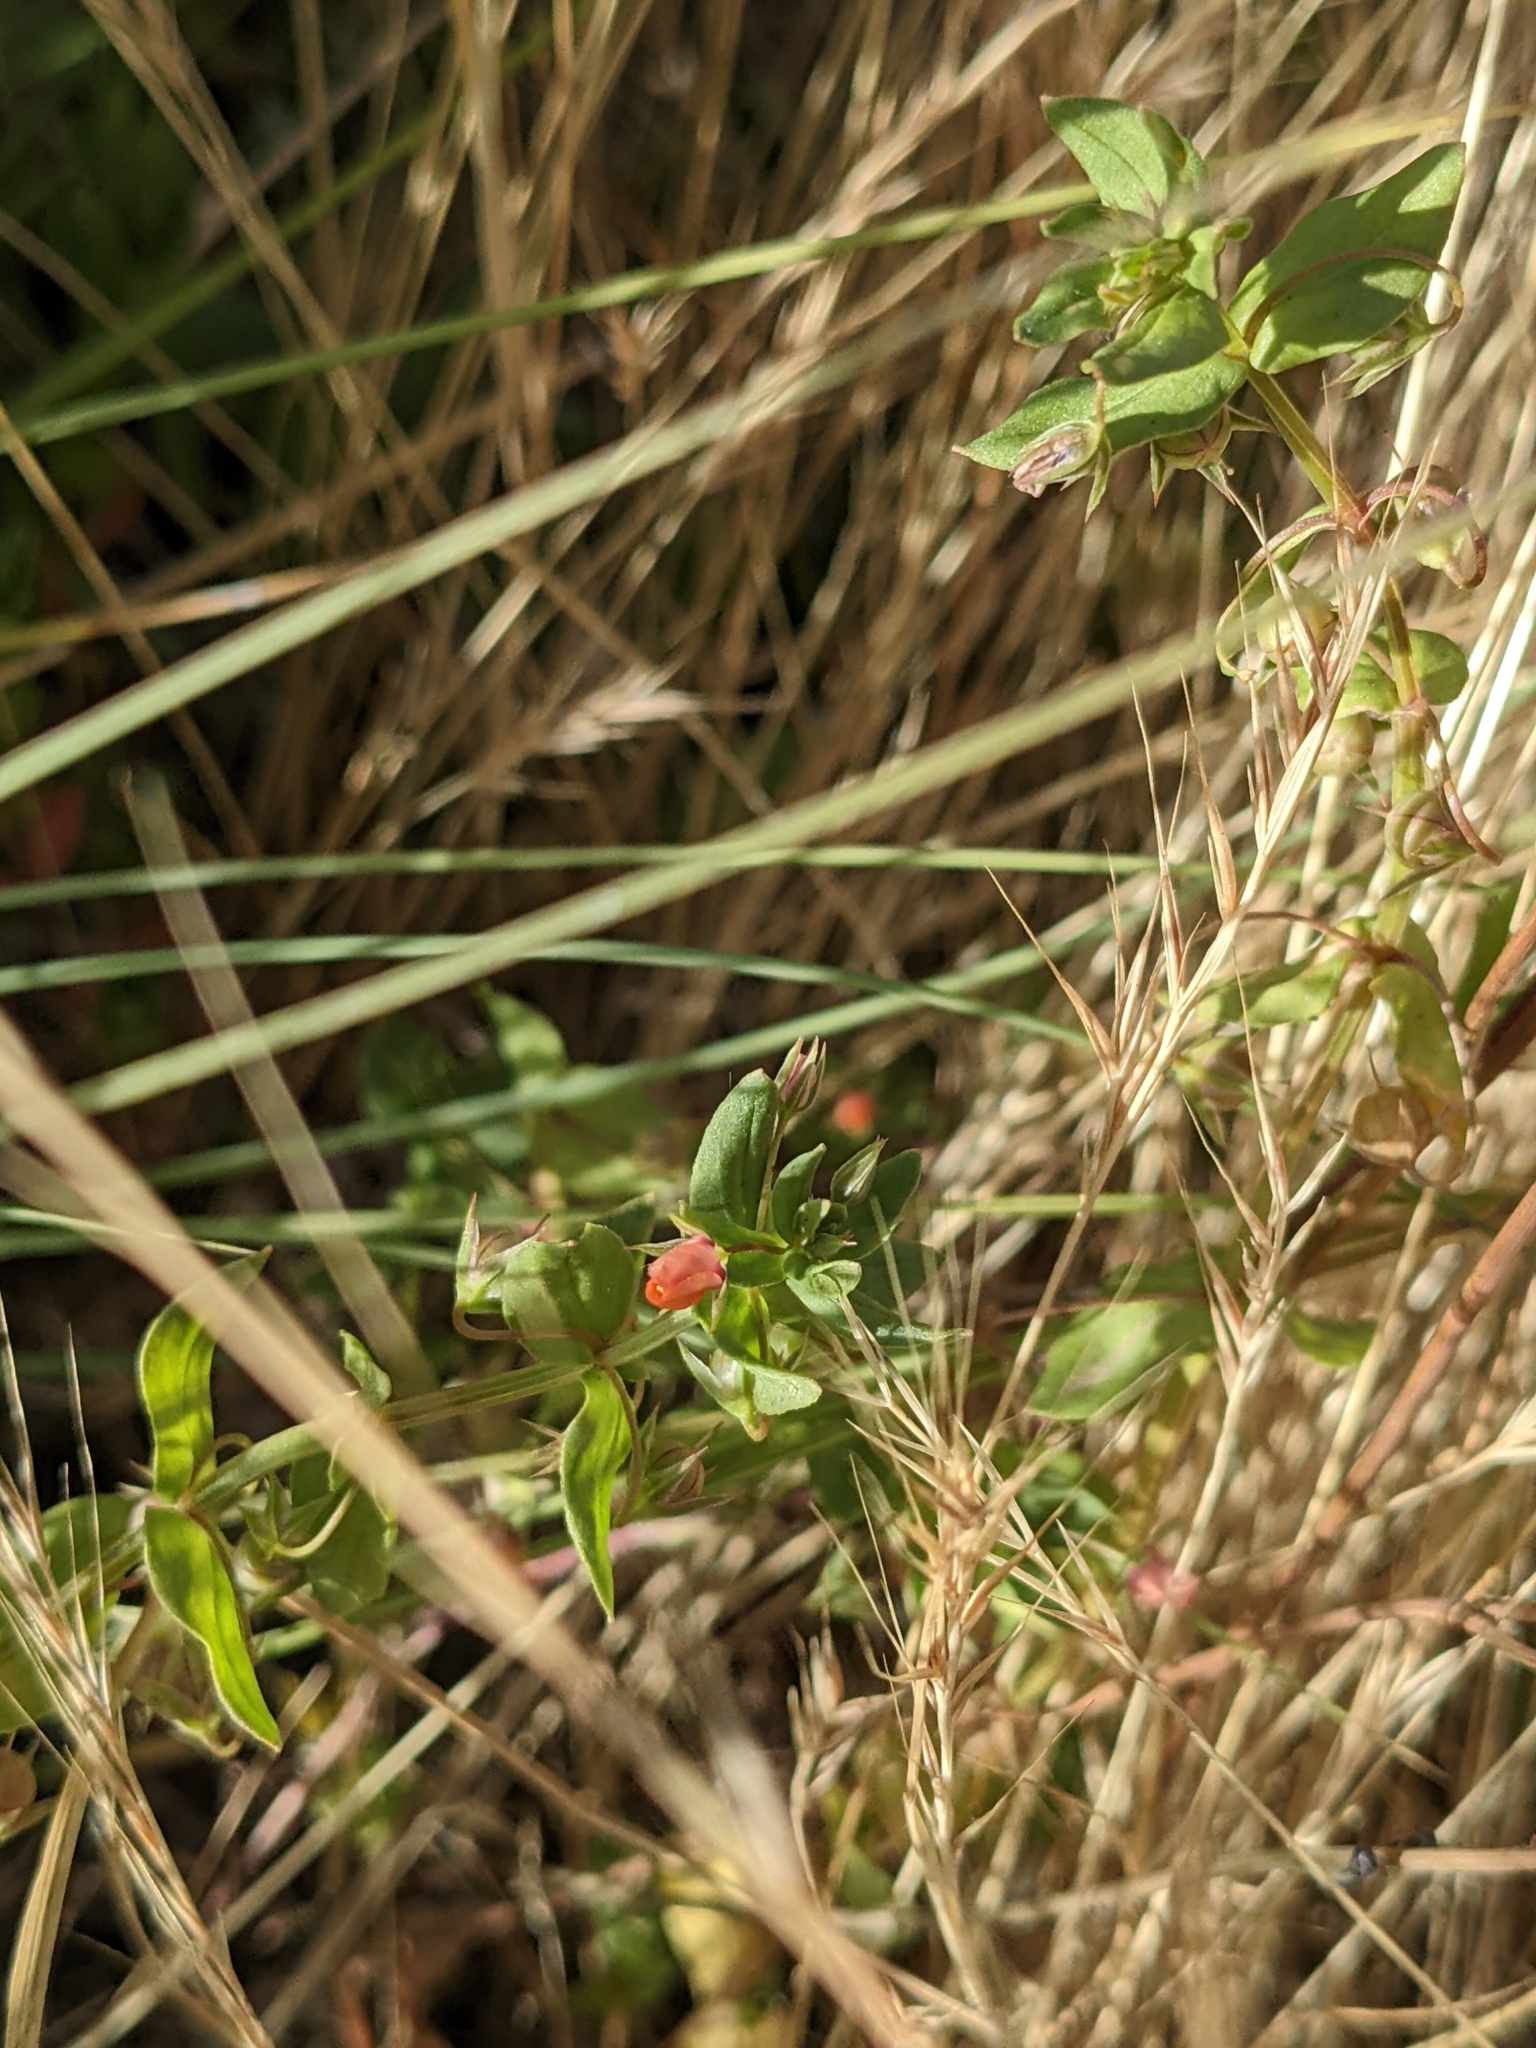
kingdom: Plantae
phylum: Tracheophyta
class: Magnoliopsida
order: Ericales
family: Primulaceae
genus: Lysimachia
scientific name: Lysimachia arvensis
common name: Scarlet pimpernel
